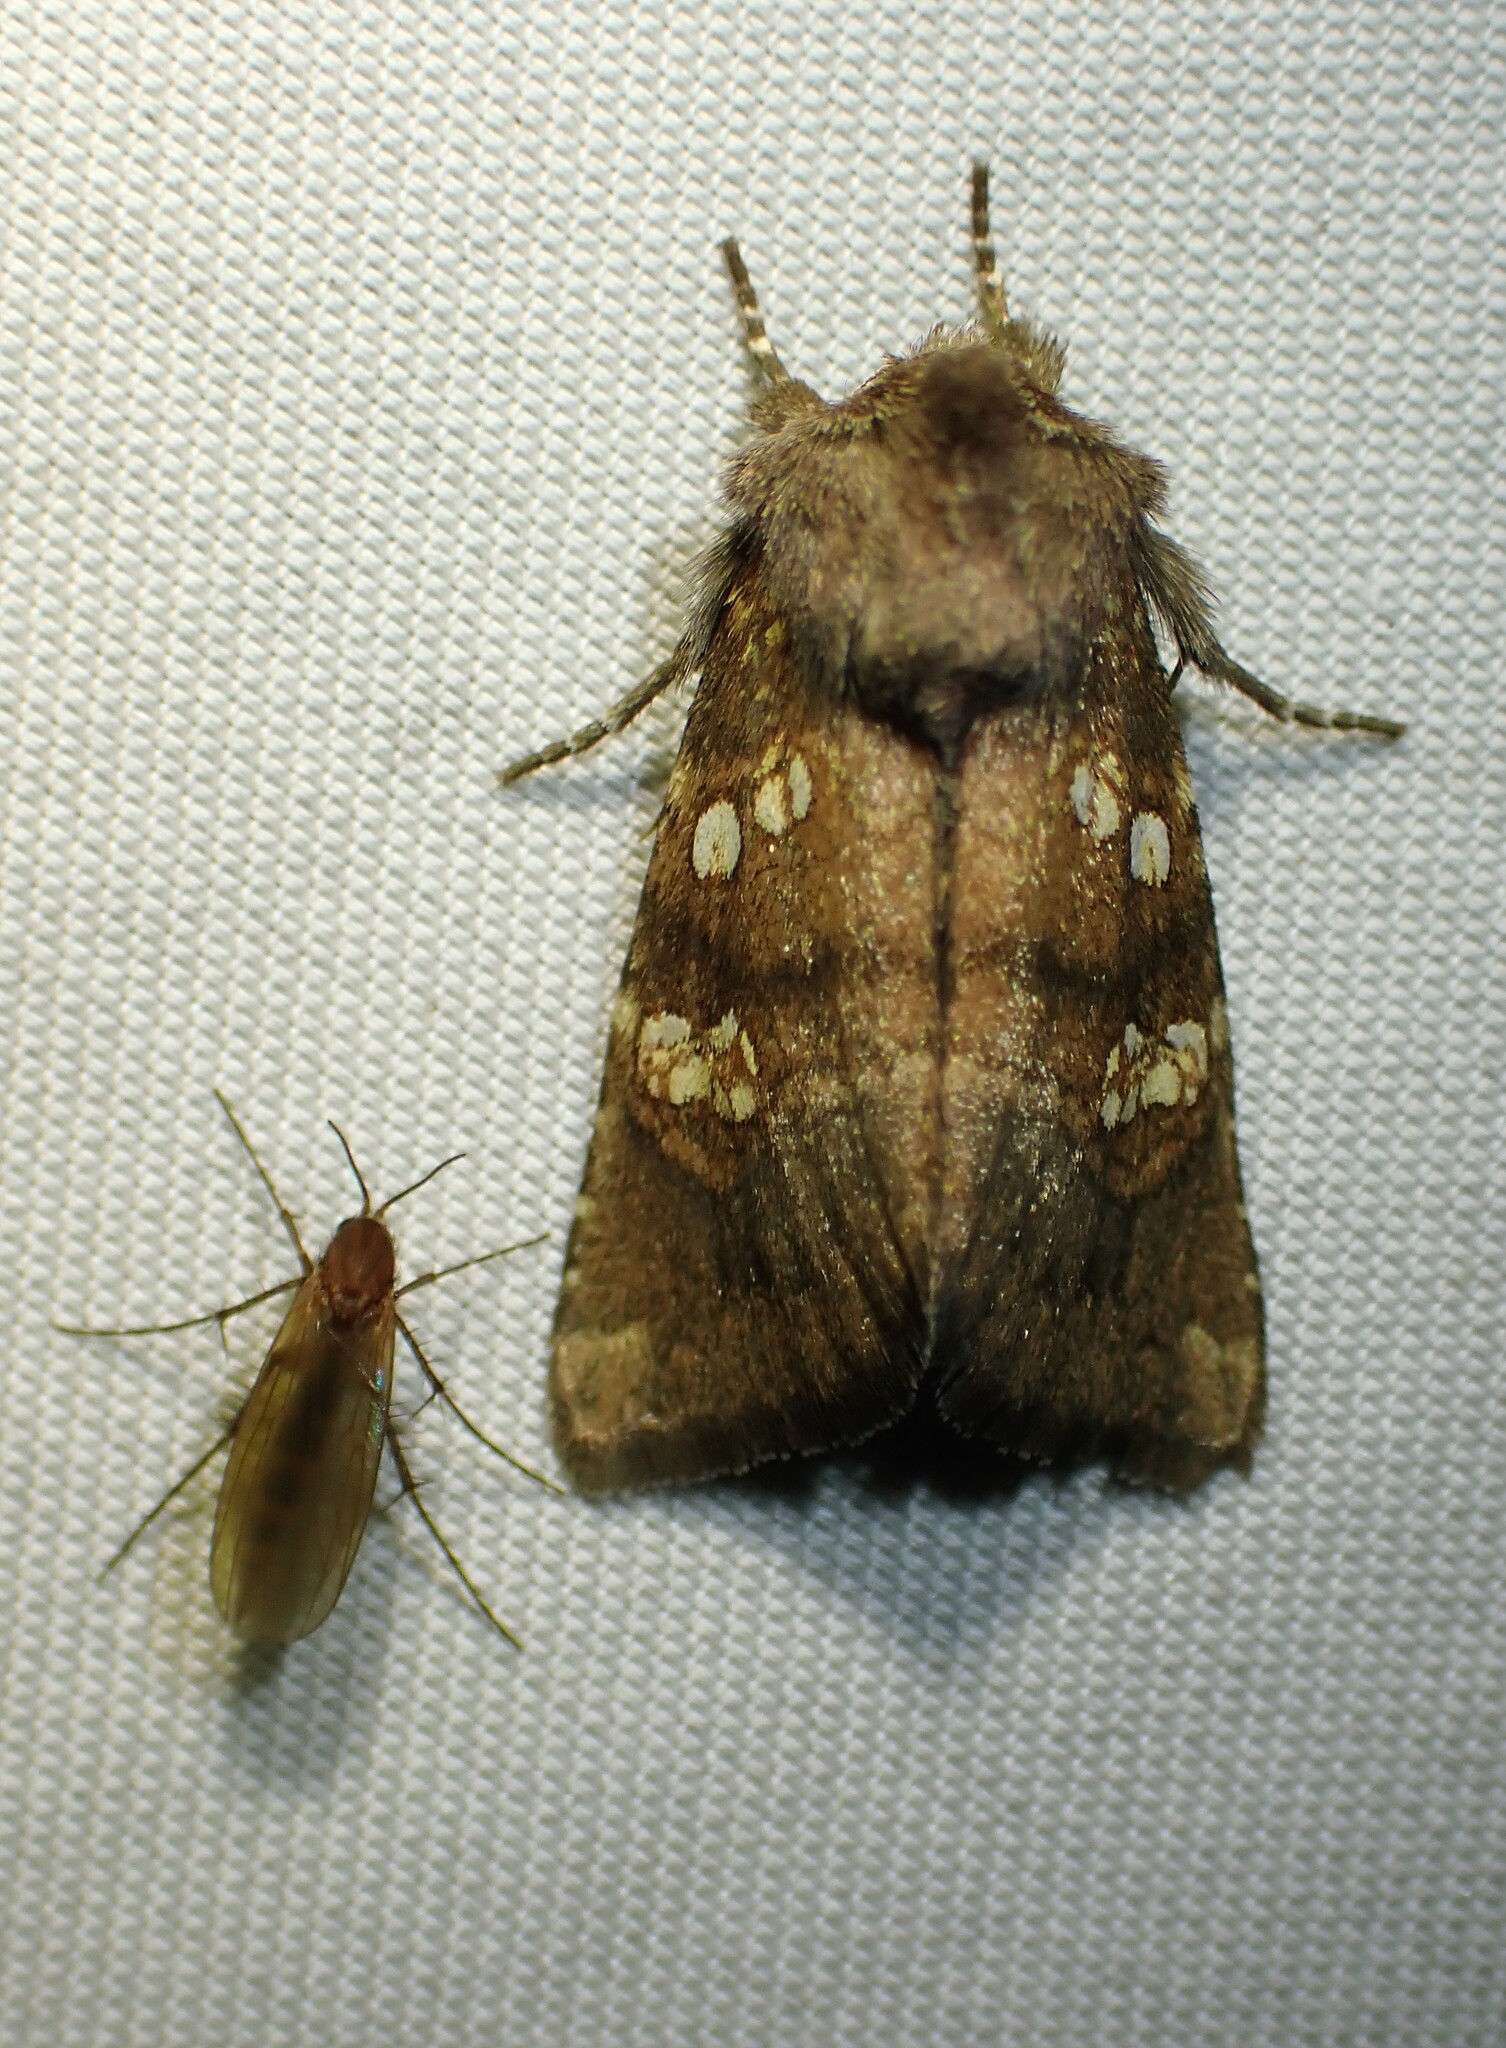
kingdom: Animalia
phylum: Arthropoda
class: Insecta
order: Lepidoptera
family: Noctuidae
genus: Papaipema
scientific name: Papaipema unimoda
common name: Meadow rue borer moth
